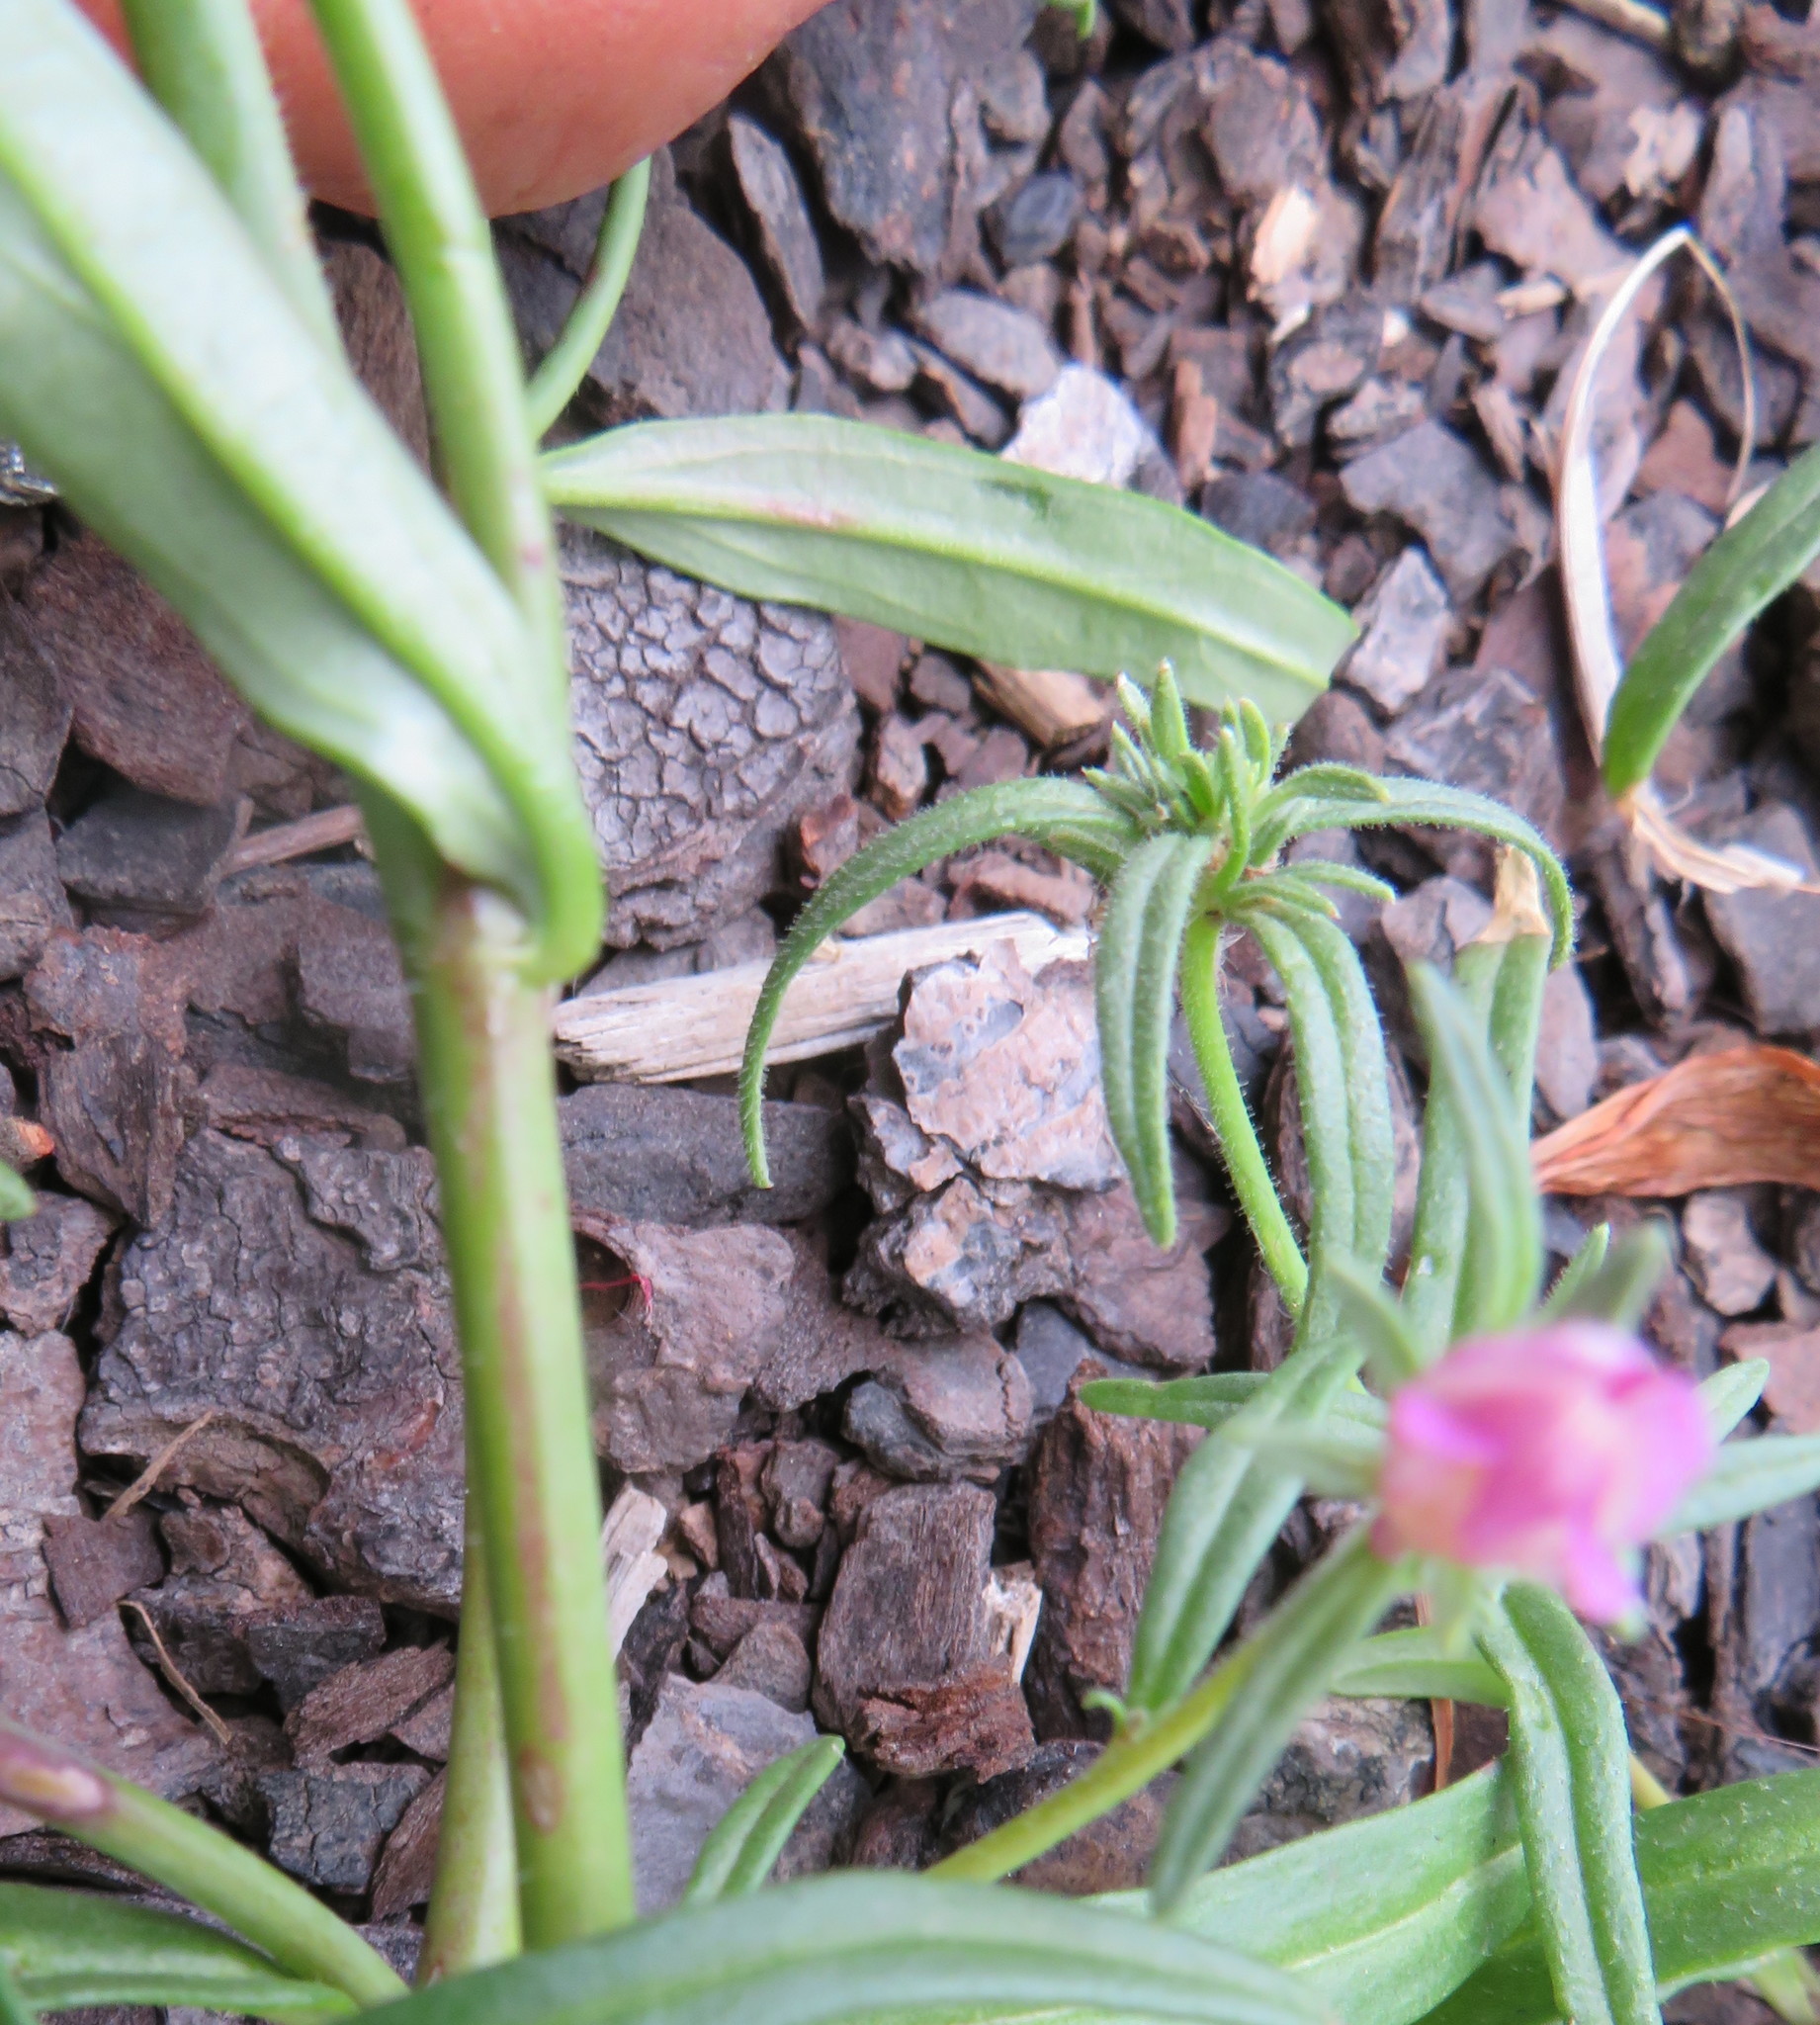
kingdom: Plantae
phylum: Tracheophyta
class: Magnoliopsida
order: Lamiales
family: Plantaginaceae
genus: Misopates
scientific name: Misopates orontium
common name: Weasel's-snout
